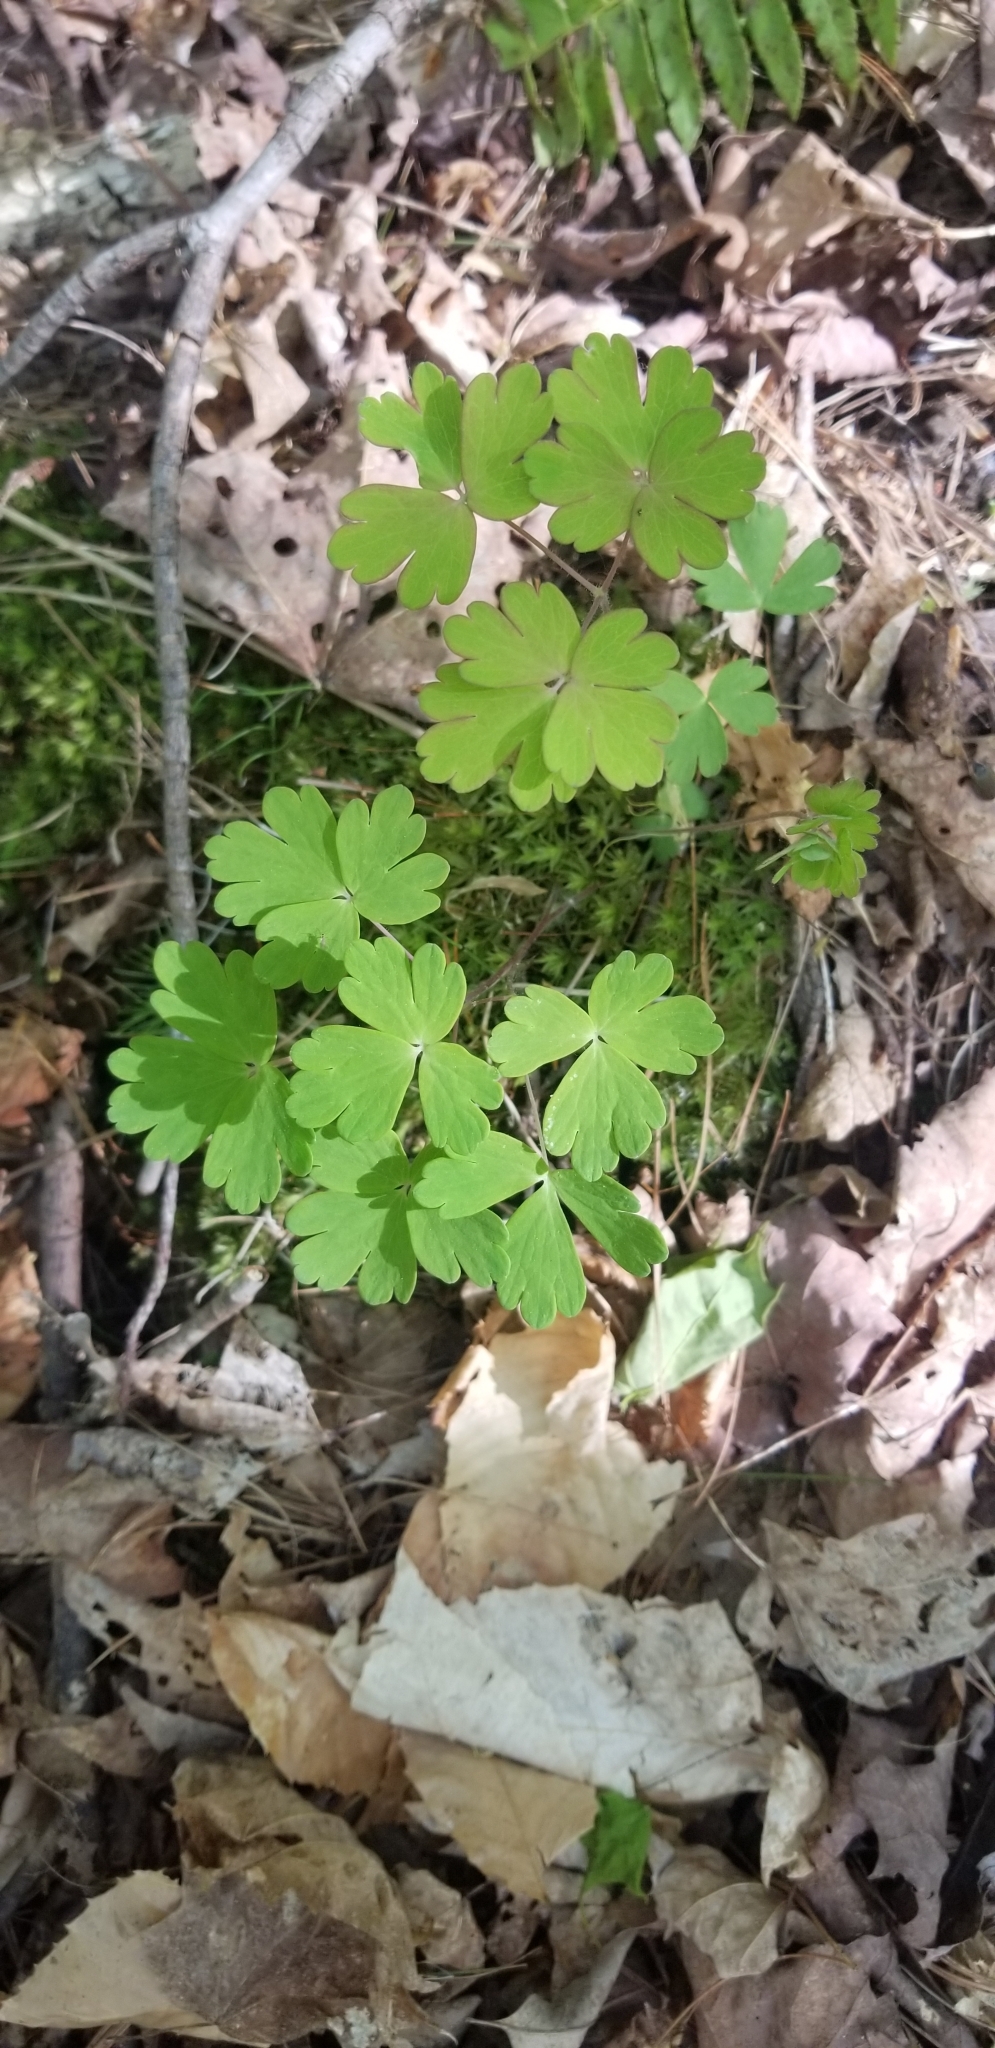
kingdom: Plantae
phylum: Tracheophyta
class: Magnoliopsida
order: Ranunculales
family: Ranunculaceae
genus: Aquilegia
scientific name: Aquilegia canadensis
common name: American columbine
